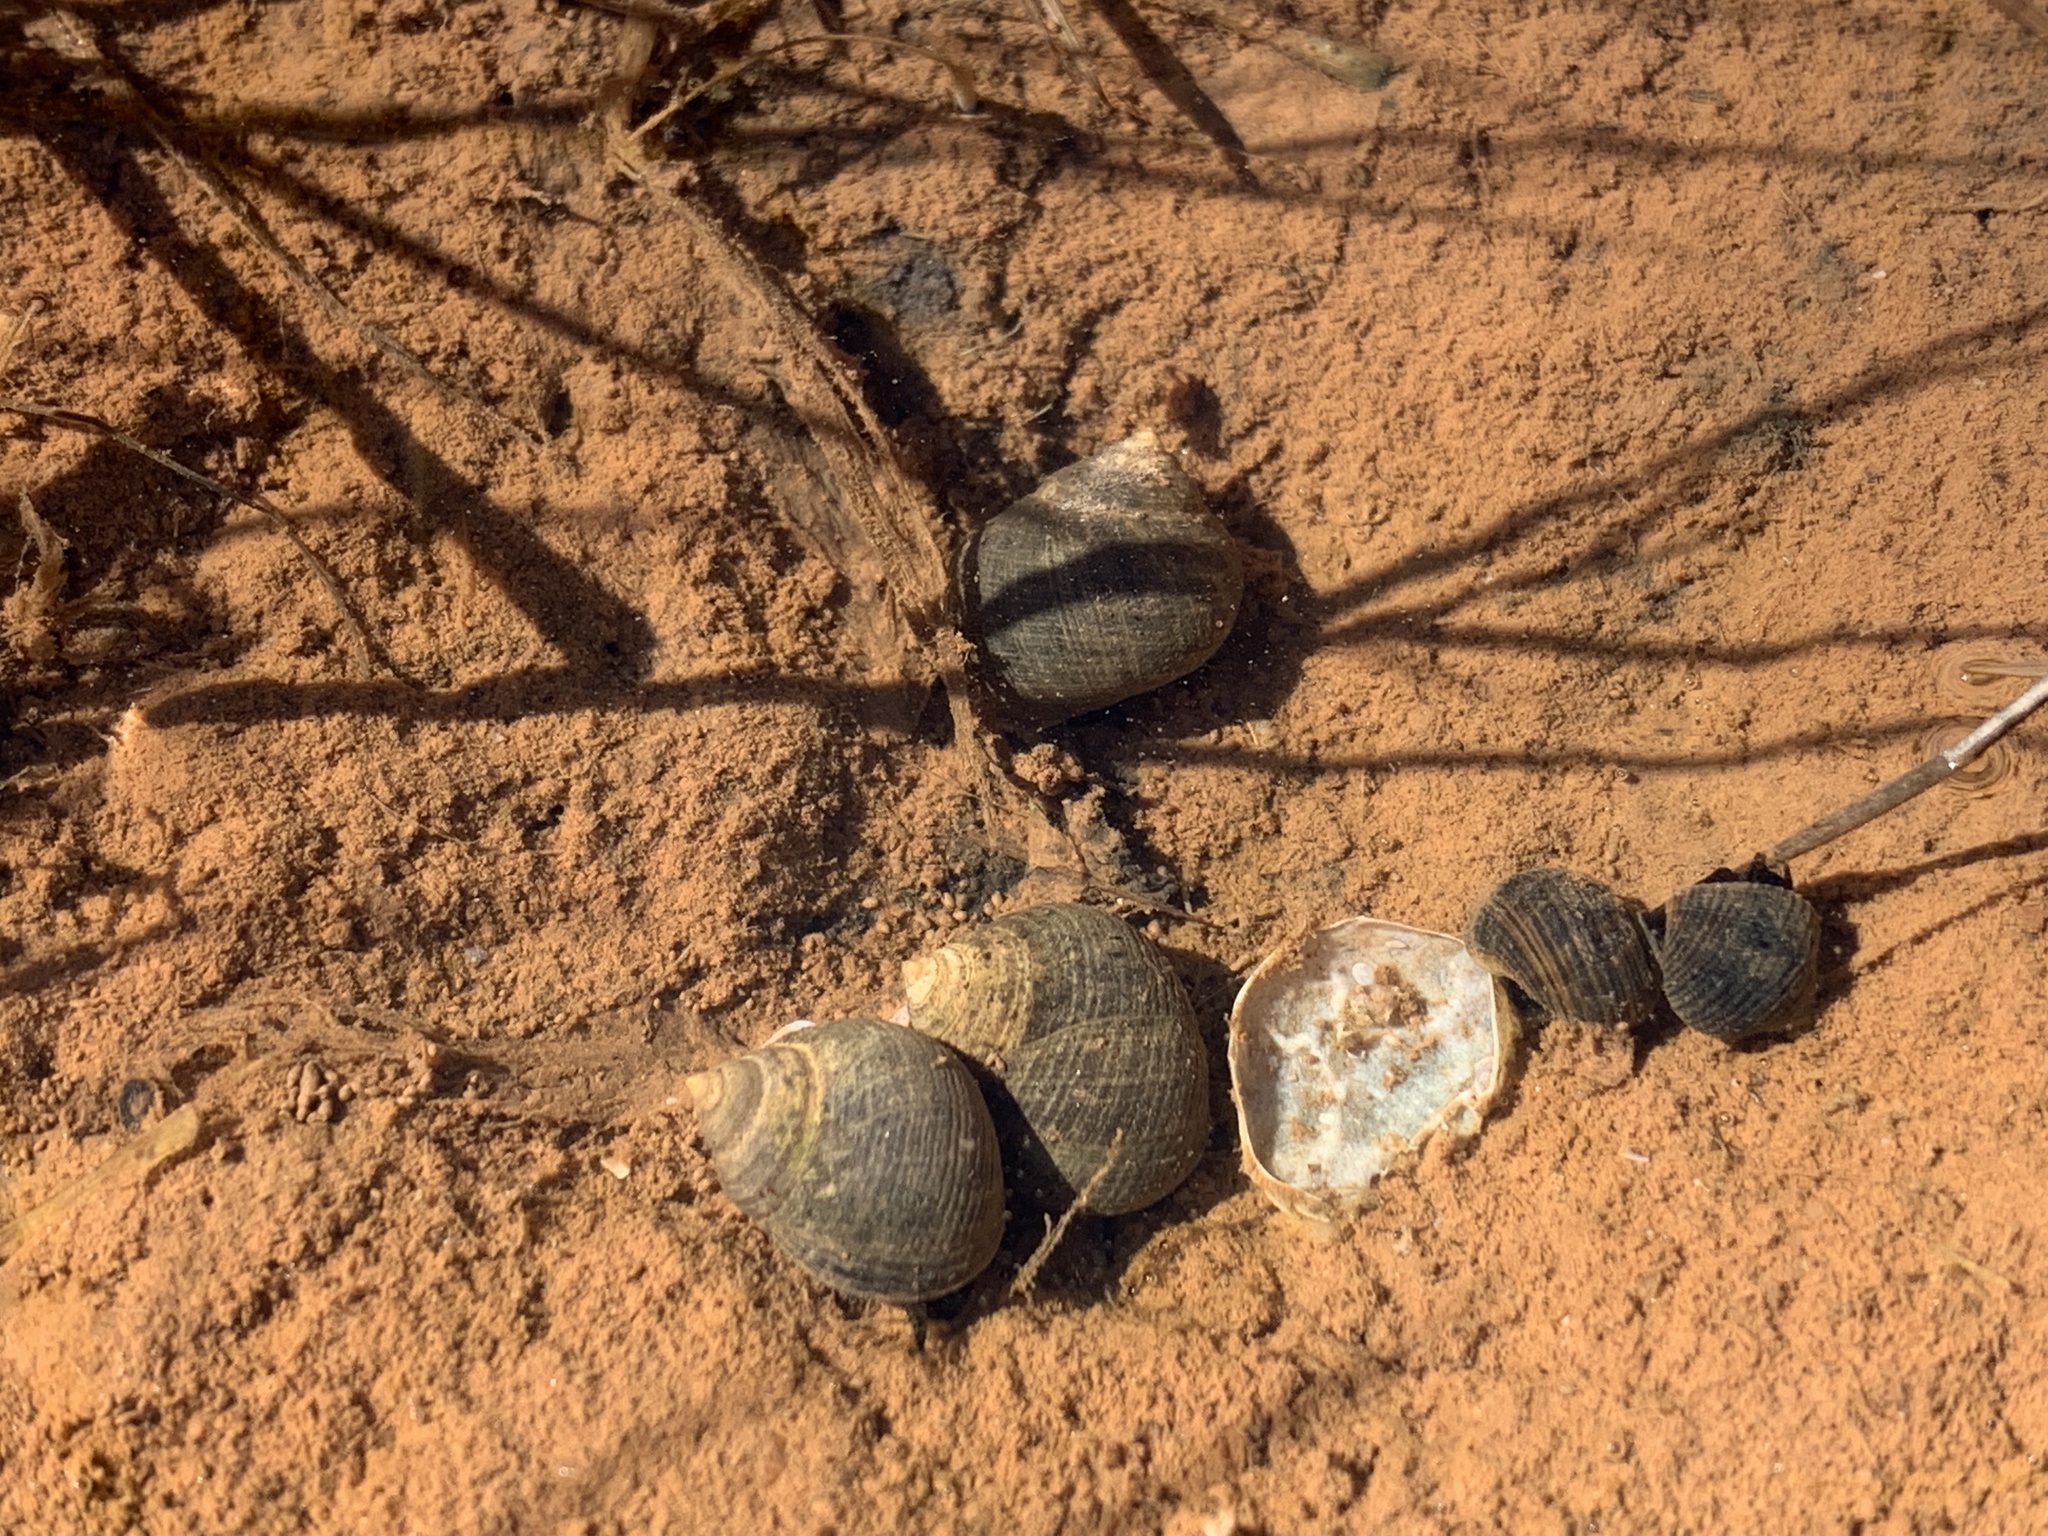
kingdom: Animalia
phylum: Mollusca
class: Gastropoda
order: Littorinimorpha
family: Littorinidae
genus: Littorina
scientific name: Littorina littorea
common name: Common periwinkle
